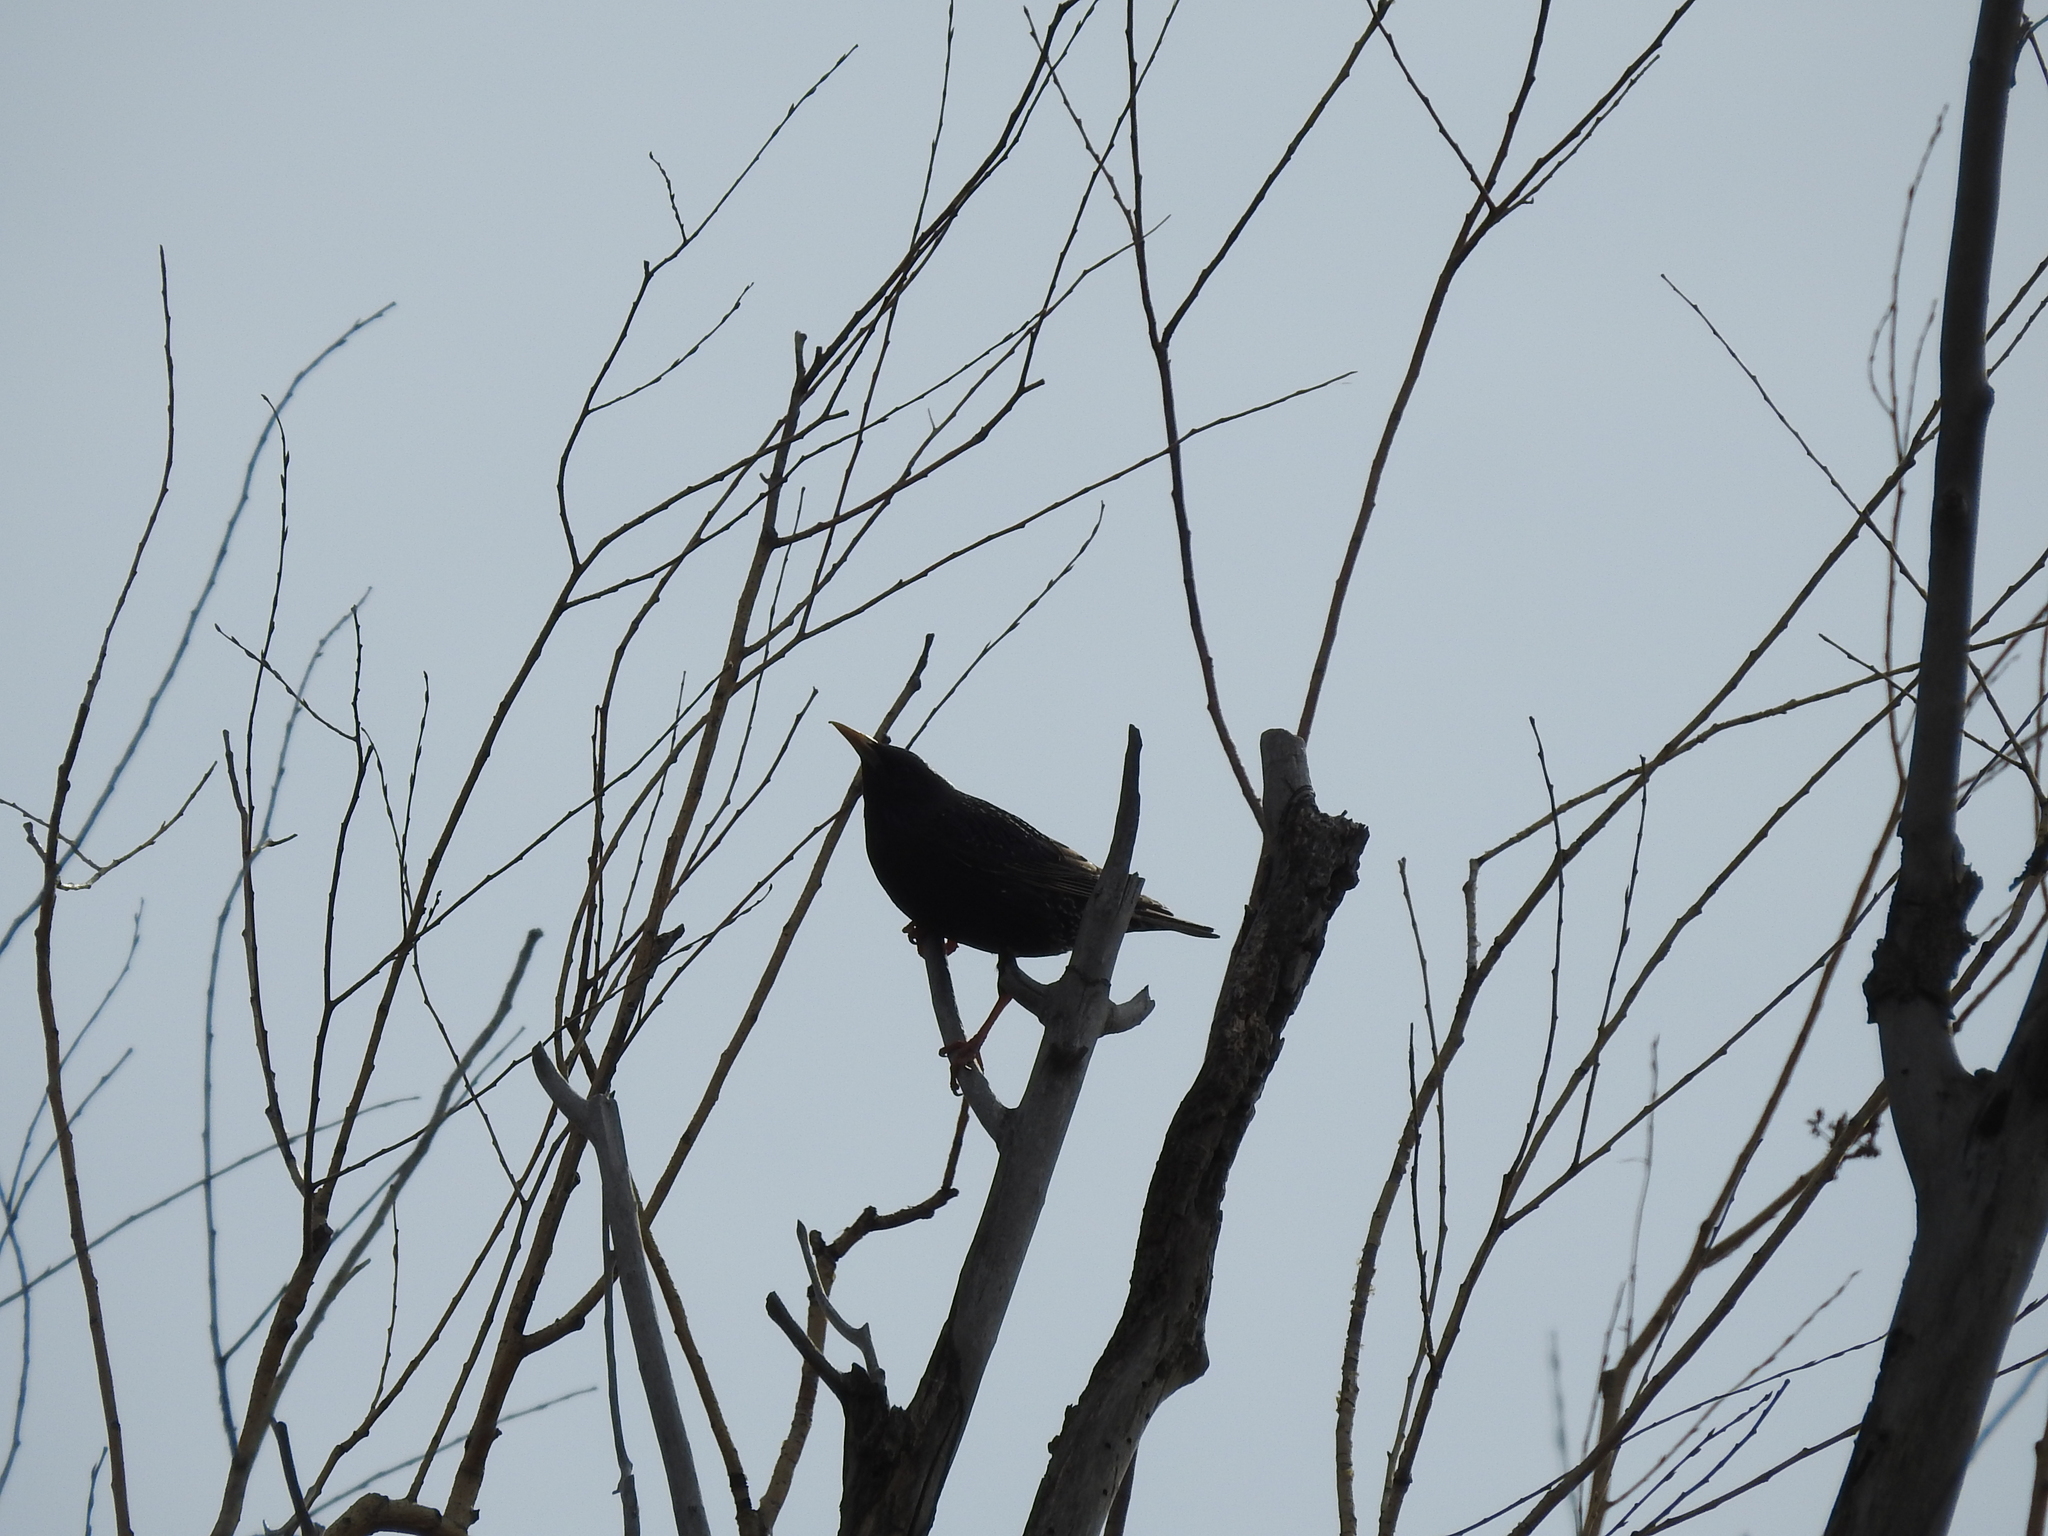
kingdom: Animalia
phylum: Chordata
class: Aves
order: Passeriformes
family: Sturnidae
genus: Sturnus
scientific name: Sturnus vulgaris
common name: Common starling
